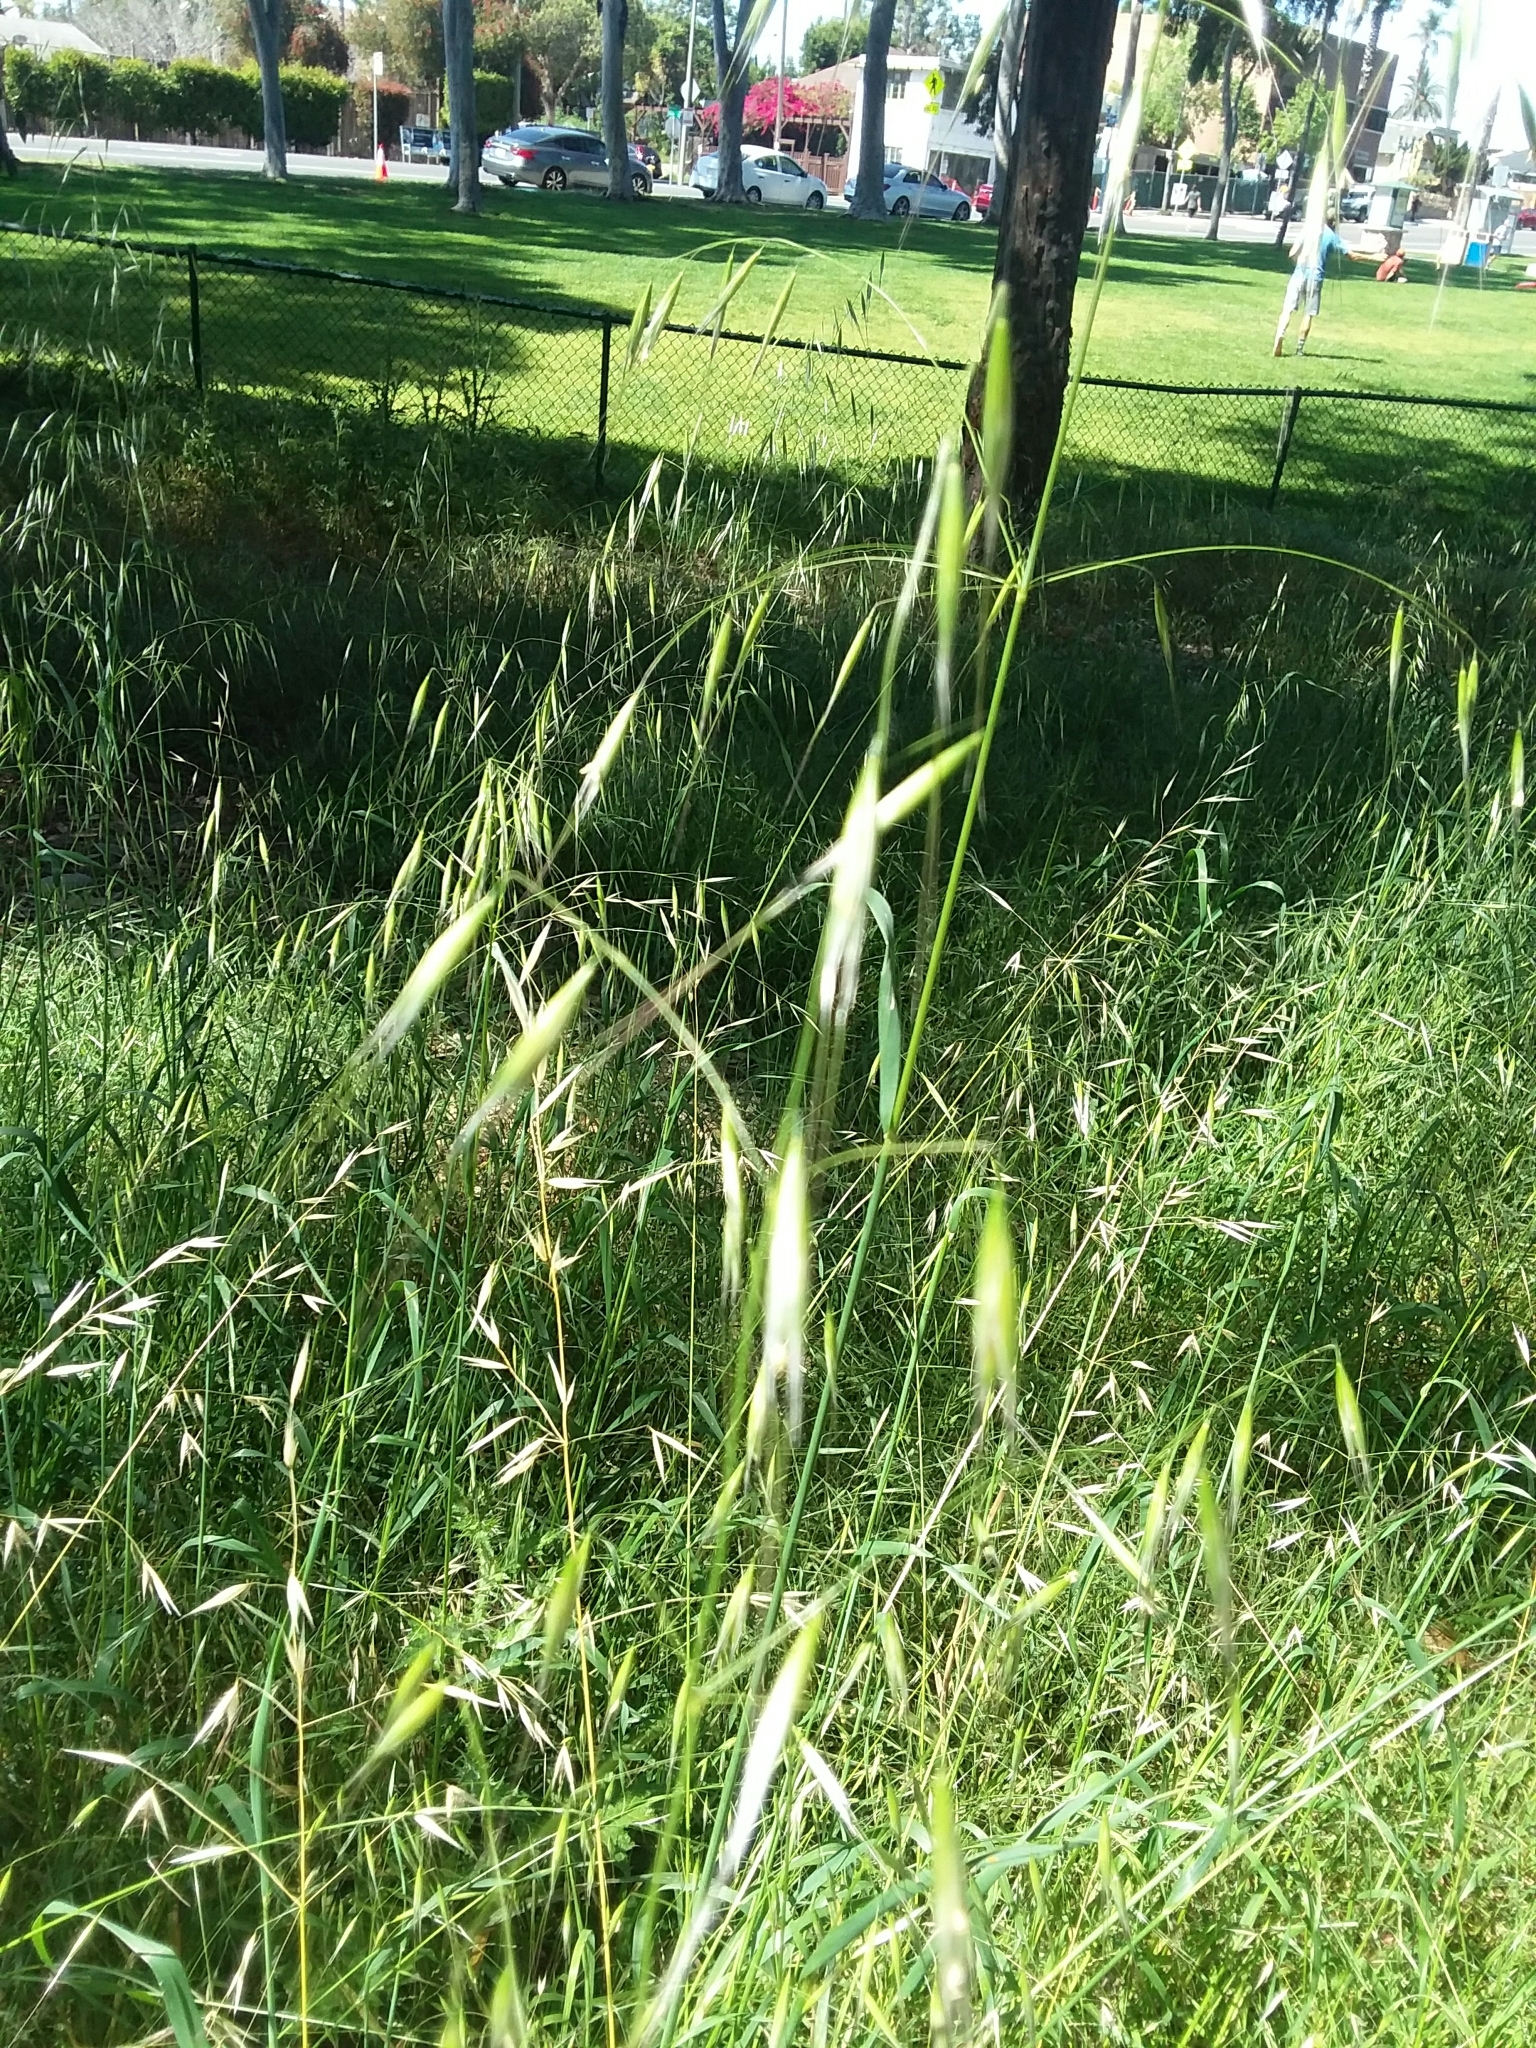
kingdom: Plantae
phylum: Tracheophyta
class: Liliopsida
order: Poales
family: Poaceae
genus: Avena
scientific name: Avena barbata
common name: Slender oat
